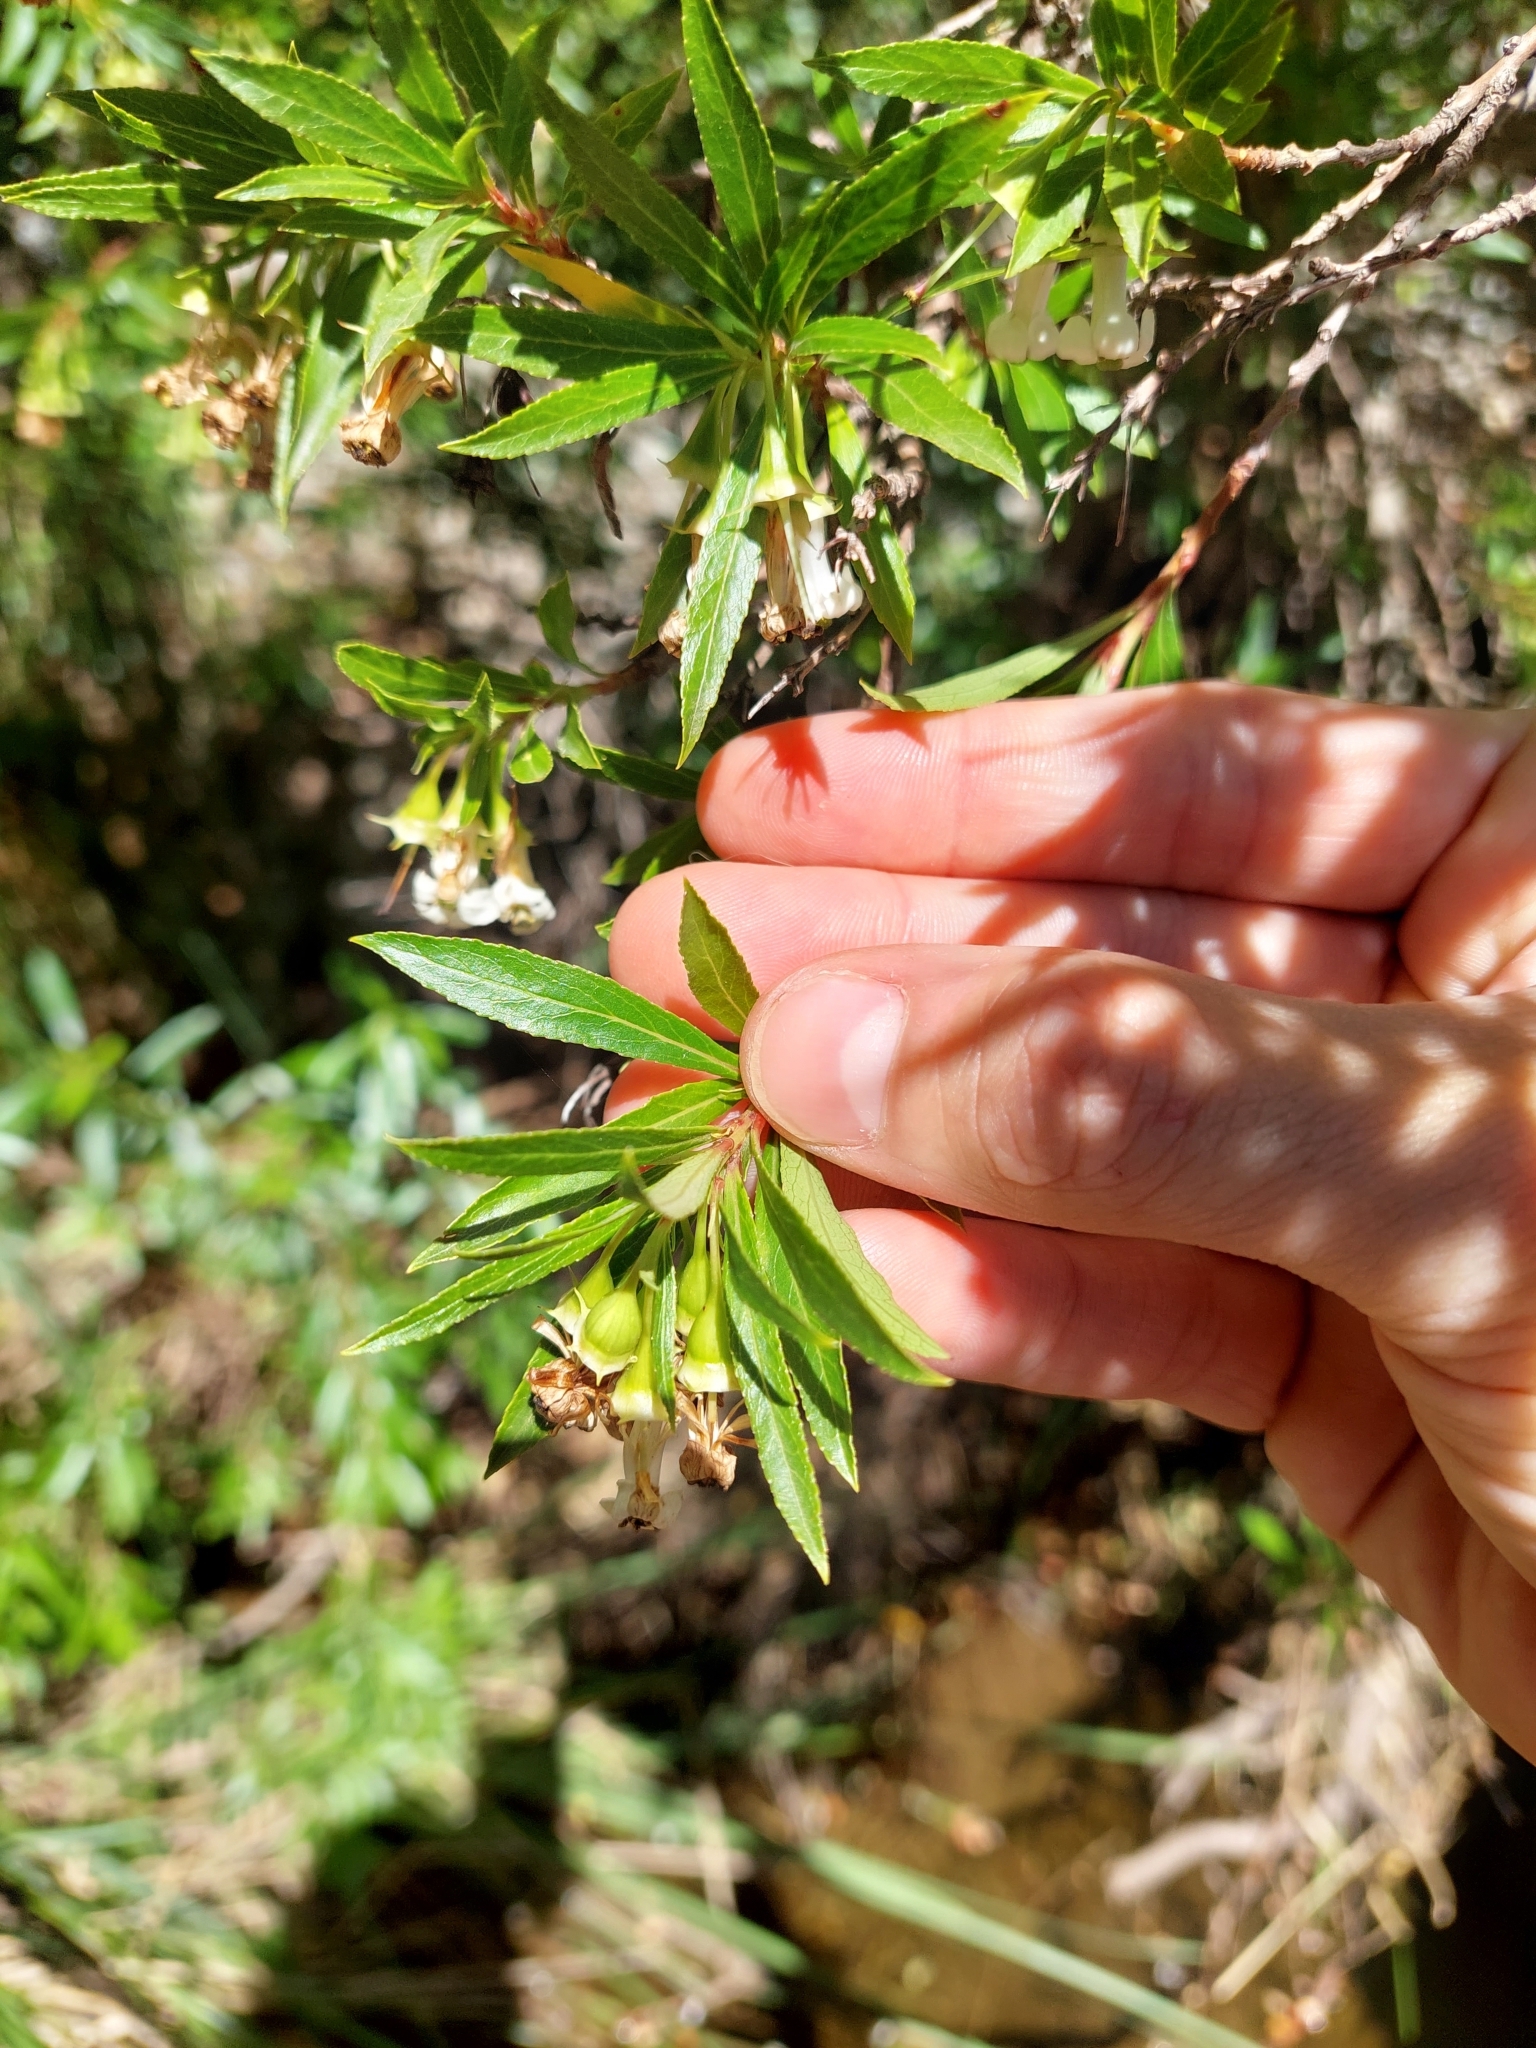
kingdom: Plantae
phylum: Tracheophyta
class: Magnoliopsida
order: Escalloniales
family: Escalloniaceae
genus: Escallonia
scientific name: Escallonia cordobensis
